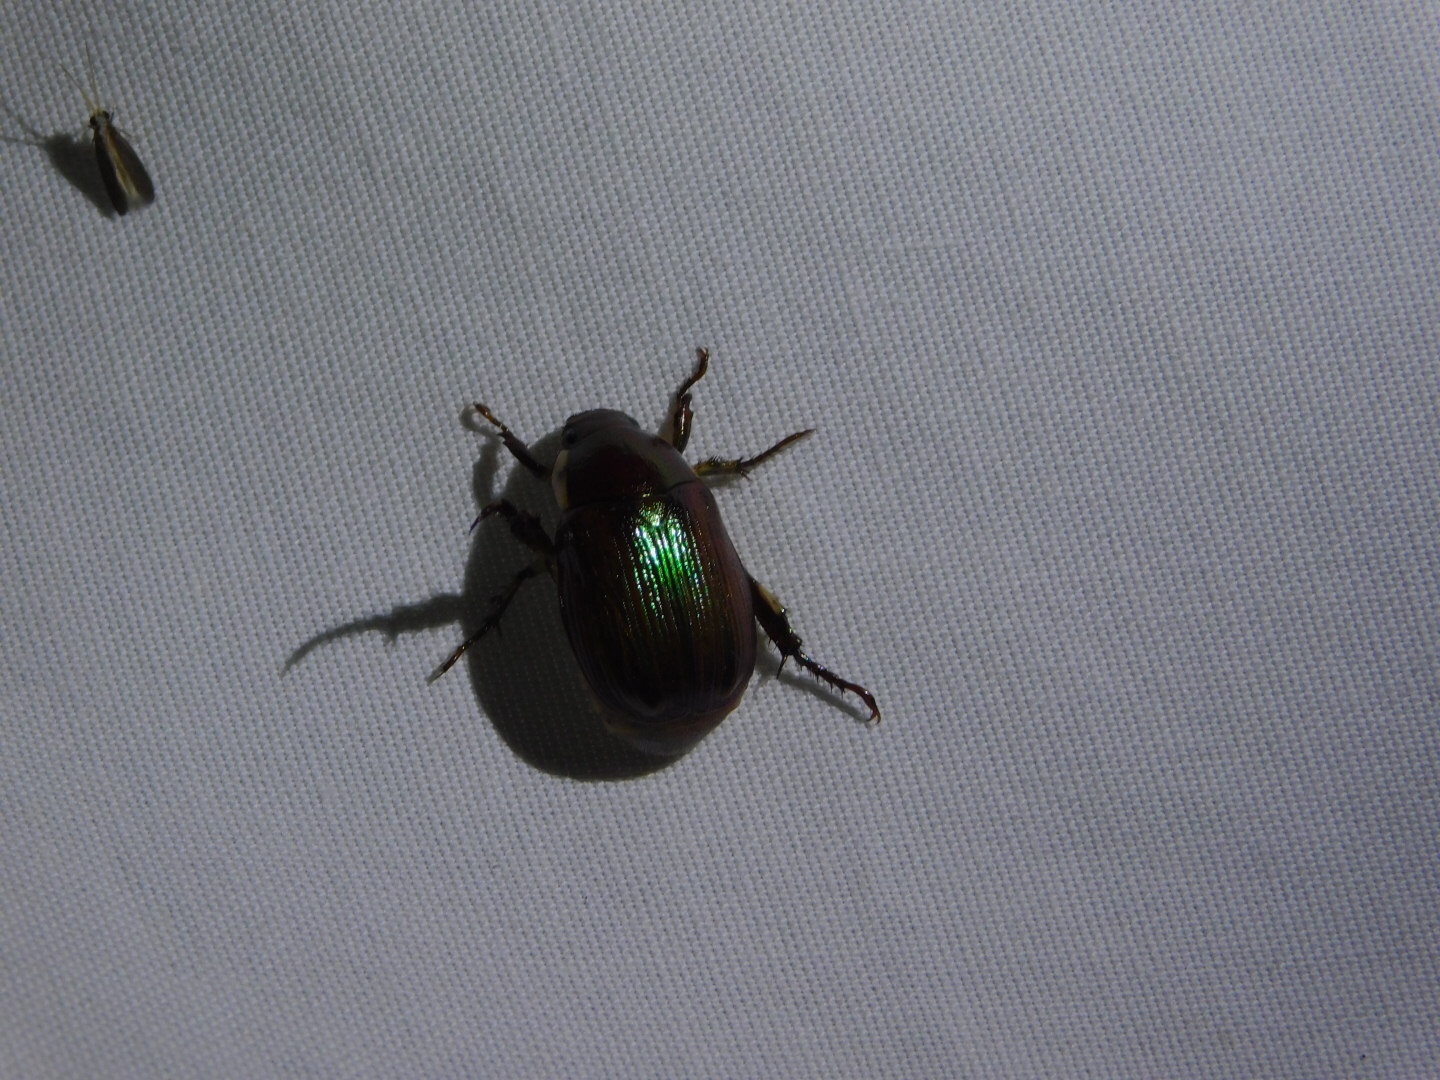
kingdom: Animalia
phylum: Arthropoda
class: Insecta
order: Coleoptera
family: Scarabaeidae
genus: Callistethus
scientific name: Callistethus marginatus
